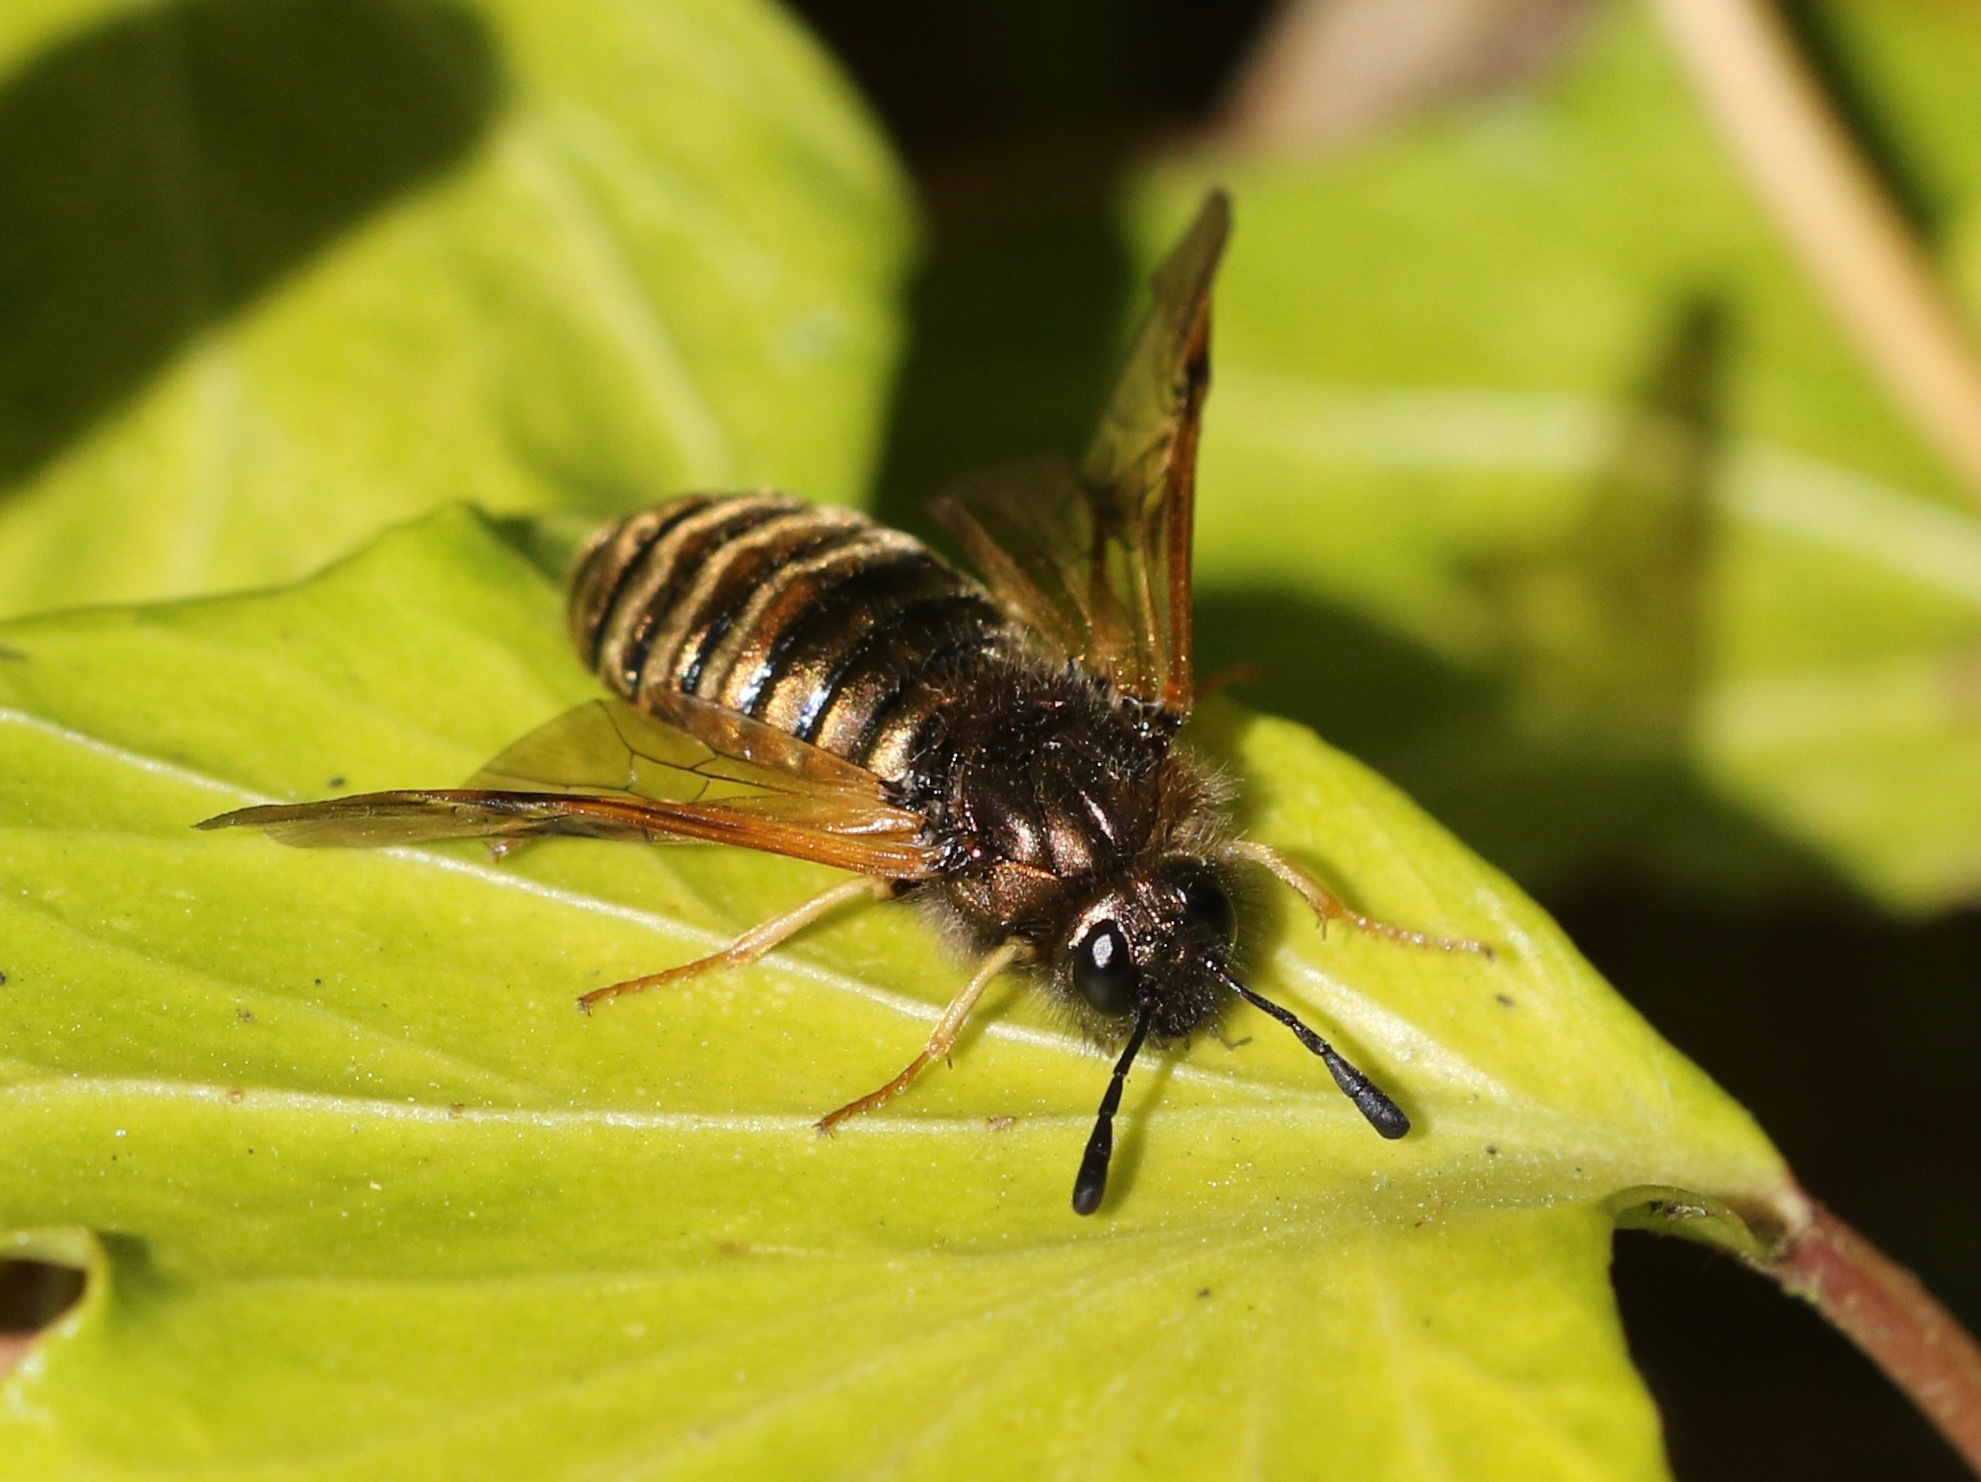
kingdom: Animalia
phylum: Arthropoda
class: Insecta
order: Hymenoptera
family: Cimbicidae
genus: Abia
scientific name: Abia
